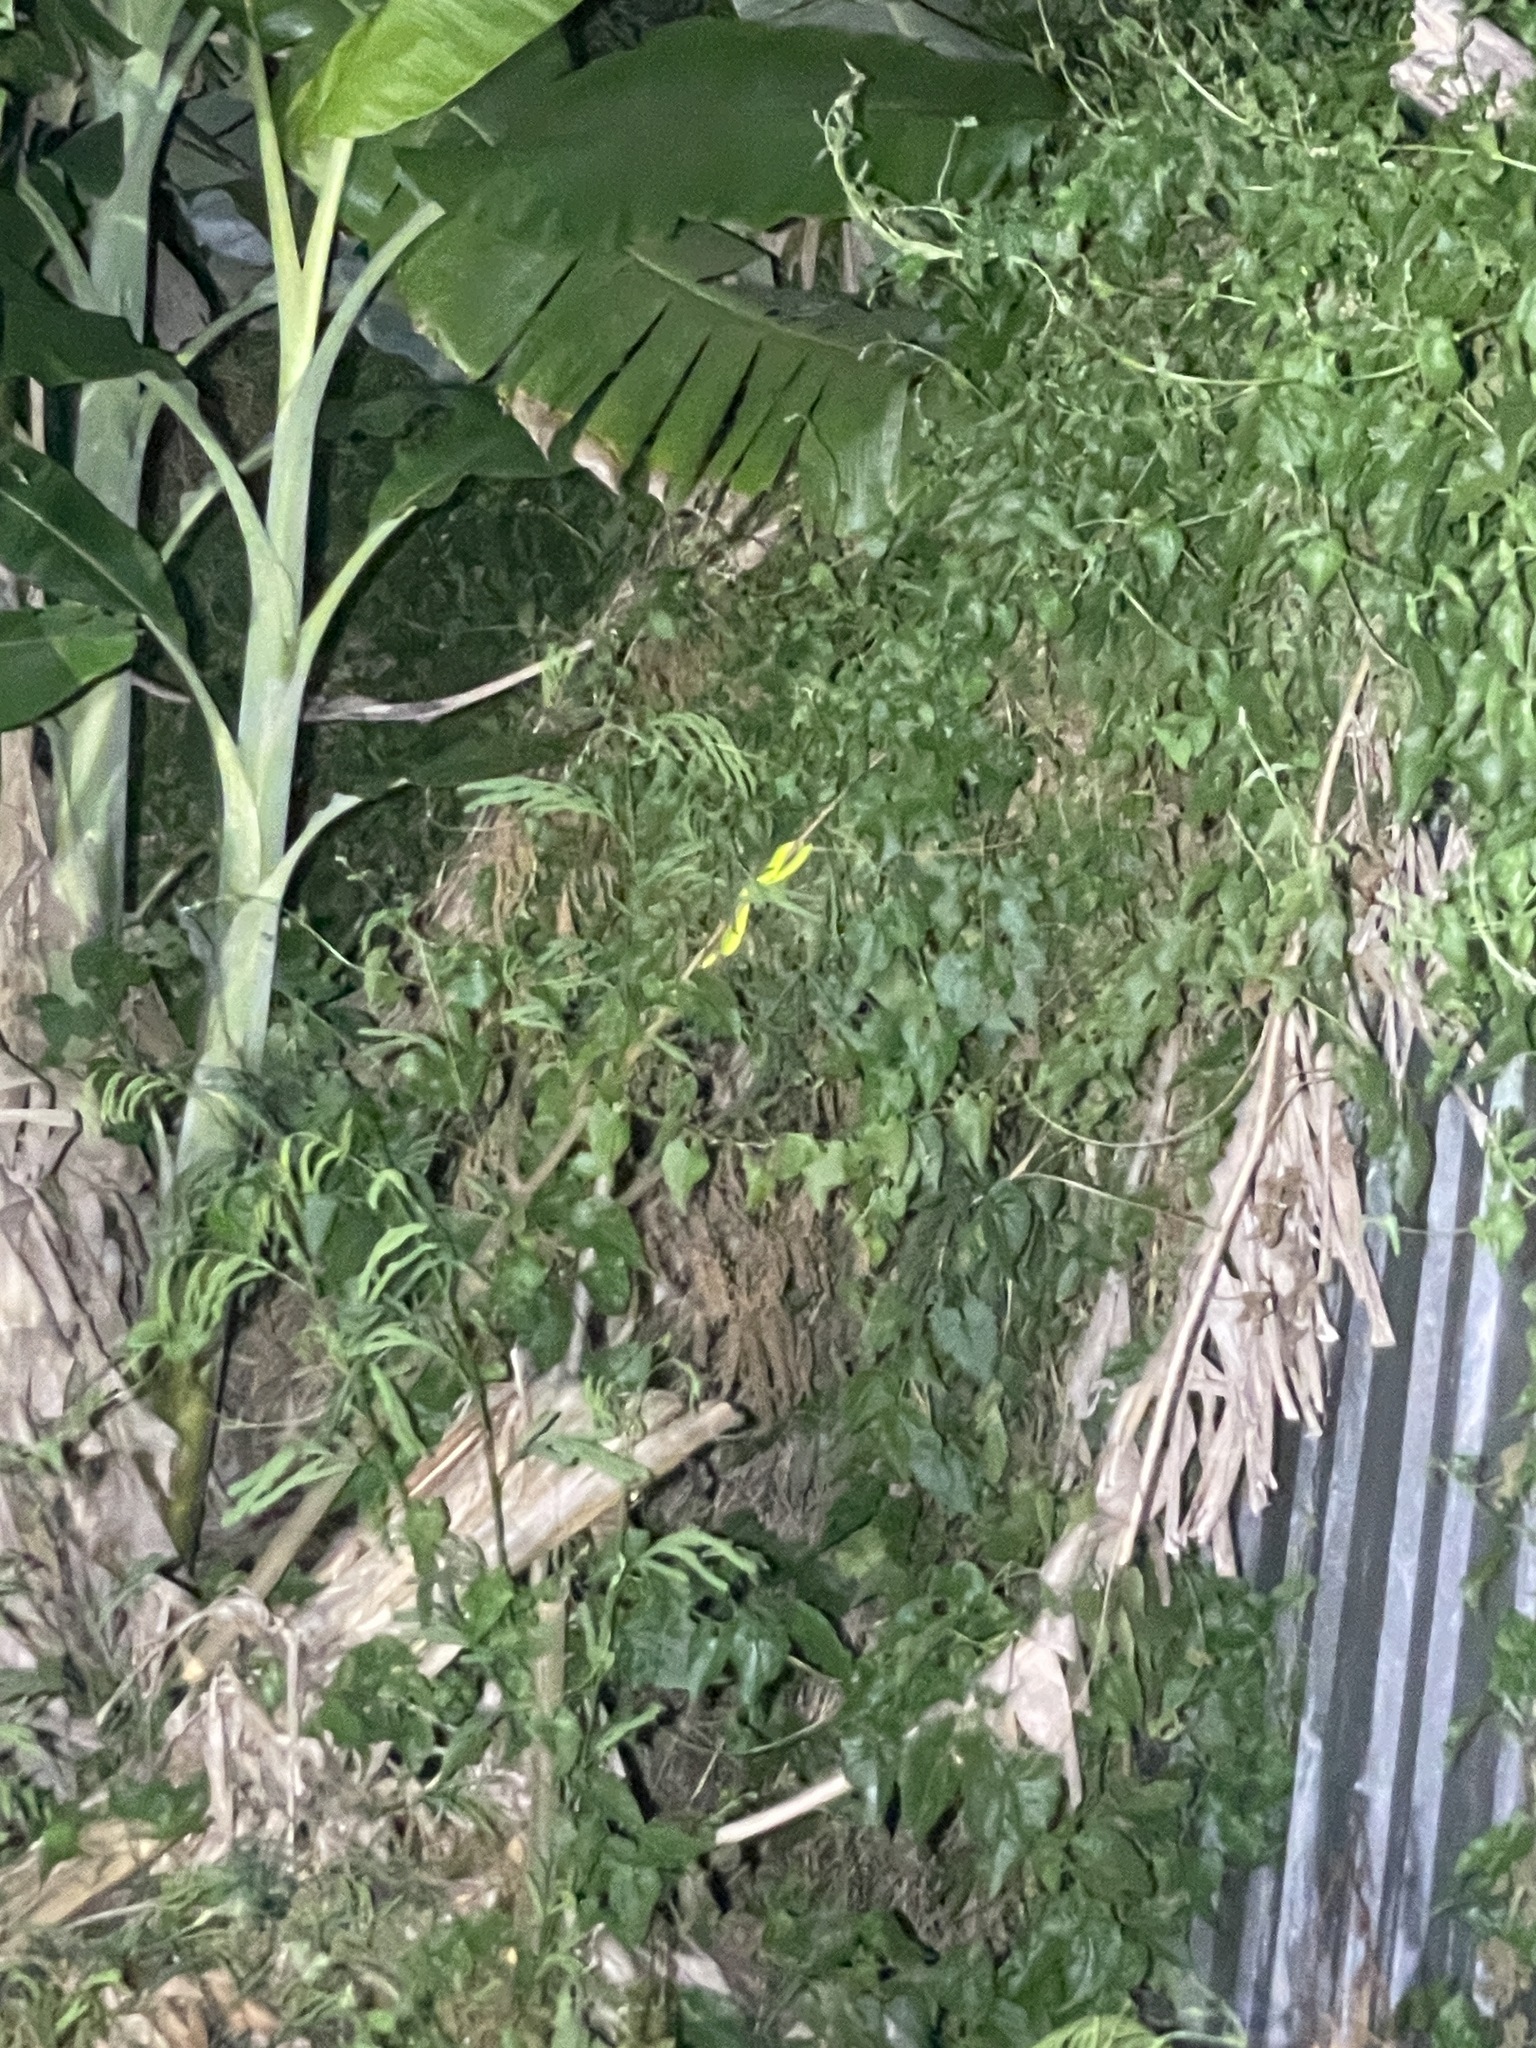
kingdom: Animalia
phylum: Chordata
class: Squamata
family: Viperidae
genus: Trimeresurus
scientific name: Trimeresurus albolabris
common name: White-lipped pitviper
